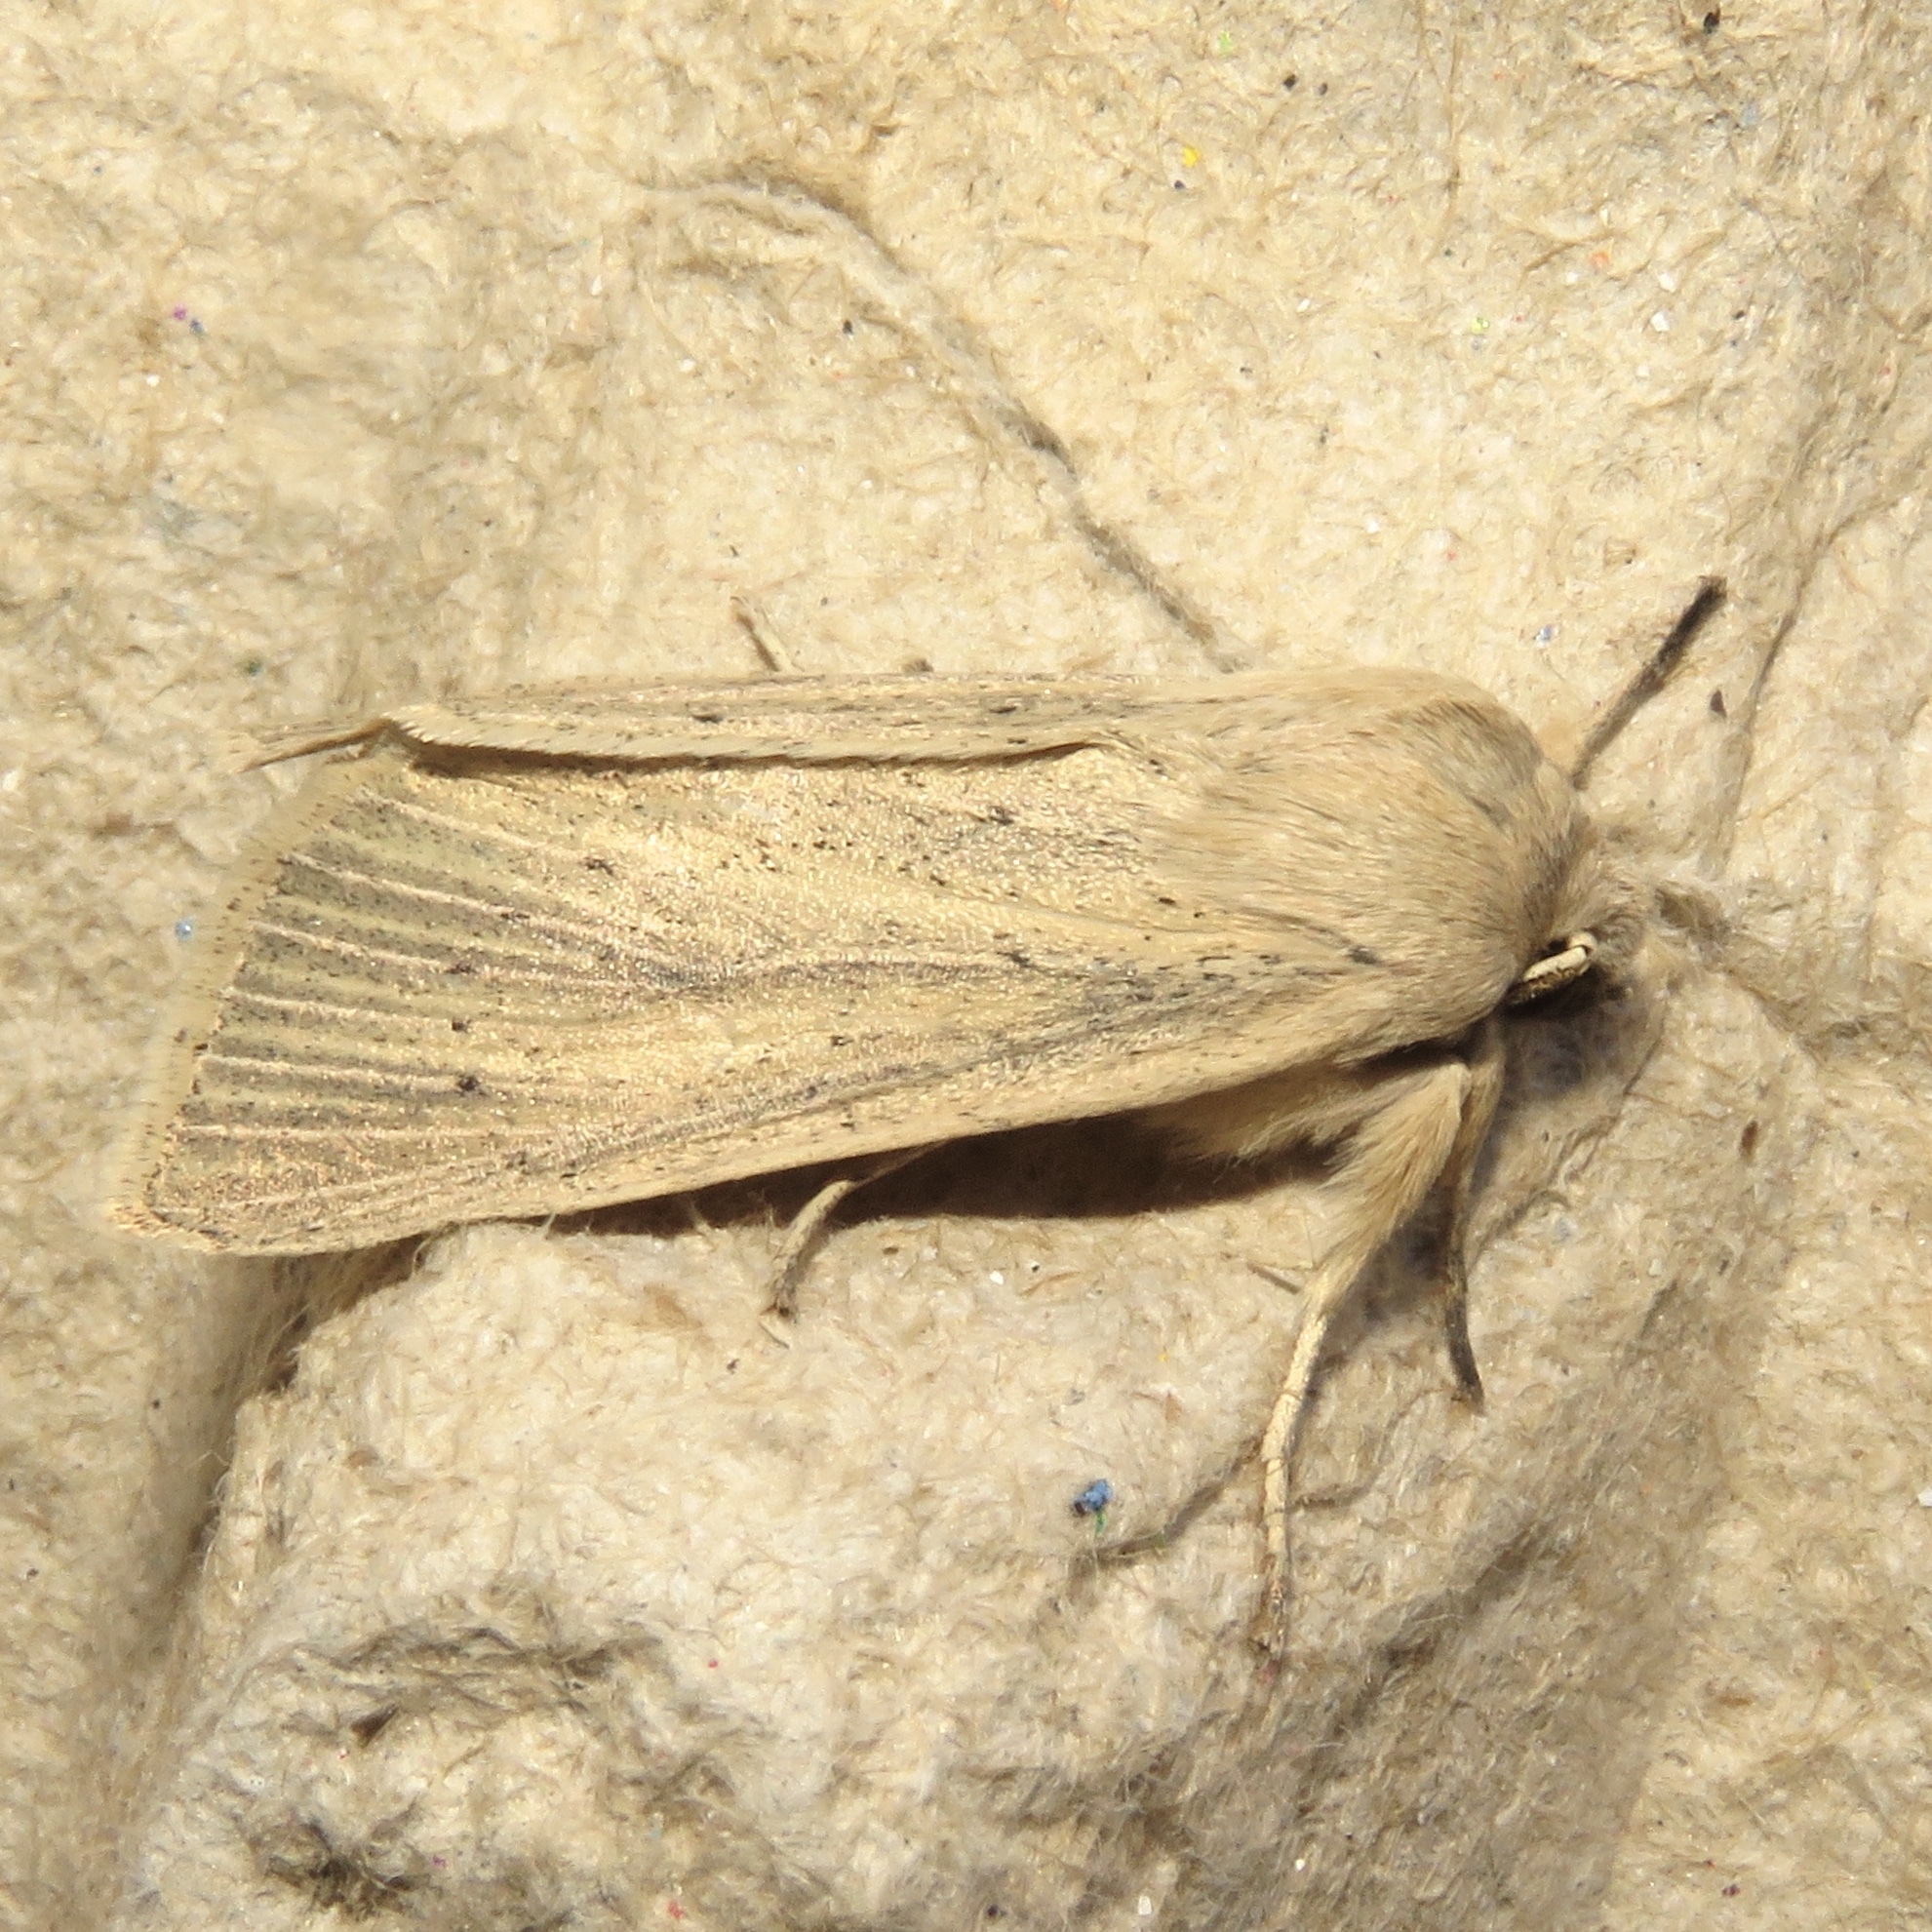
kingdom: Animalia
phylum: Arthropoda
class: Insecta
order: Lepidoptera
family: Noctuidae
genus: Rhizedra
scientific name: Rhizedra lutosa
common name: Large wainscot
